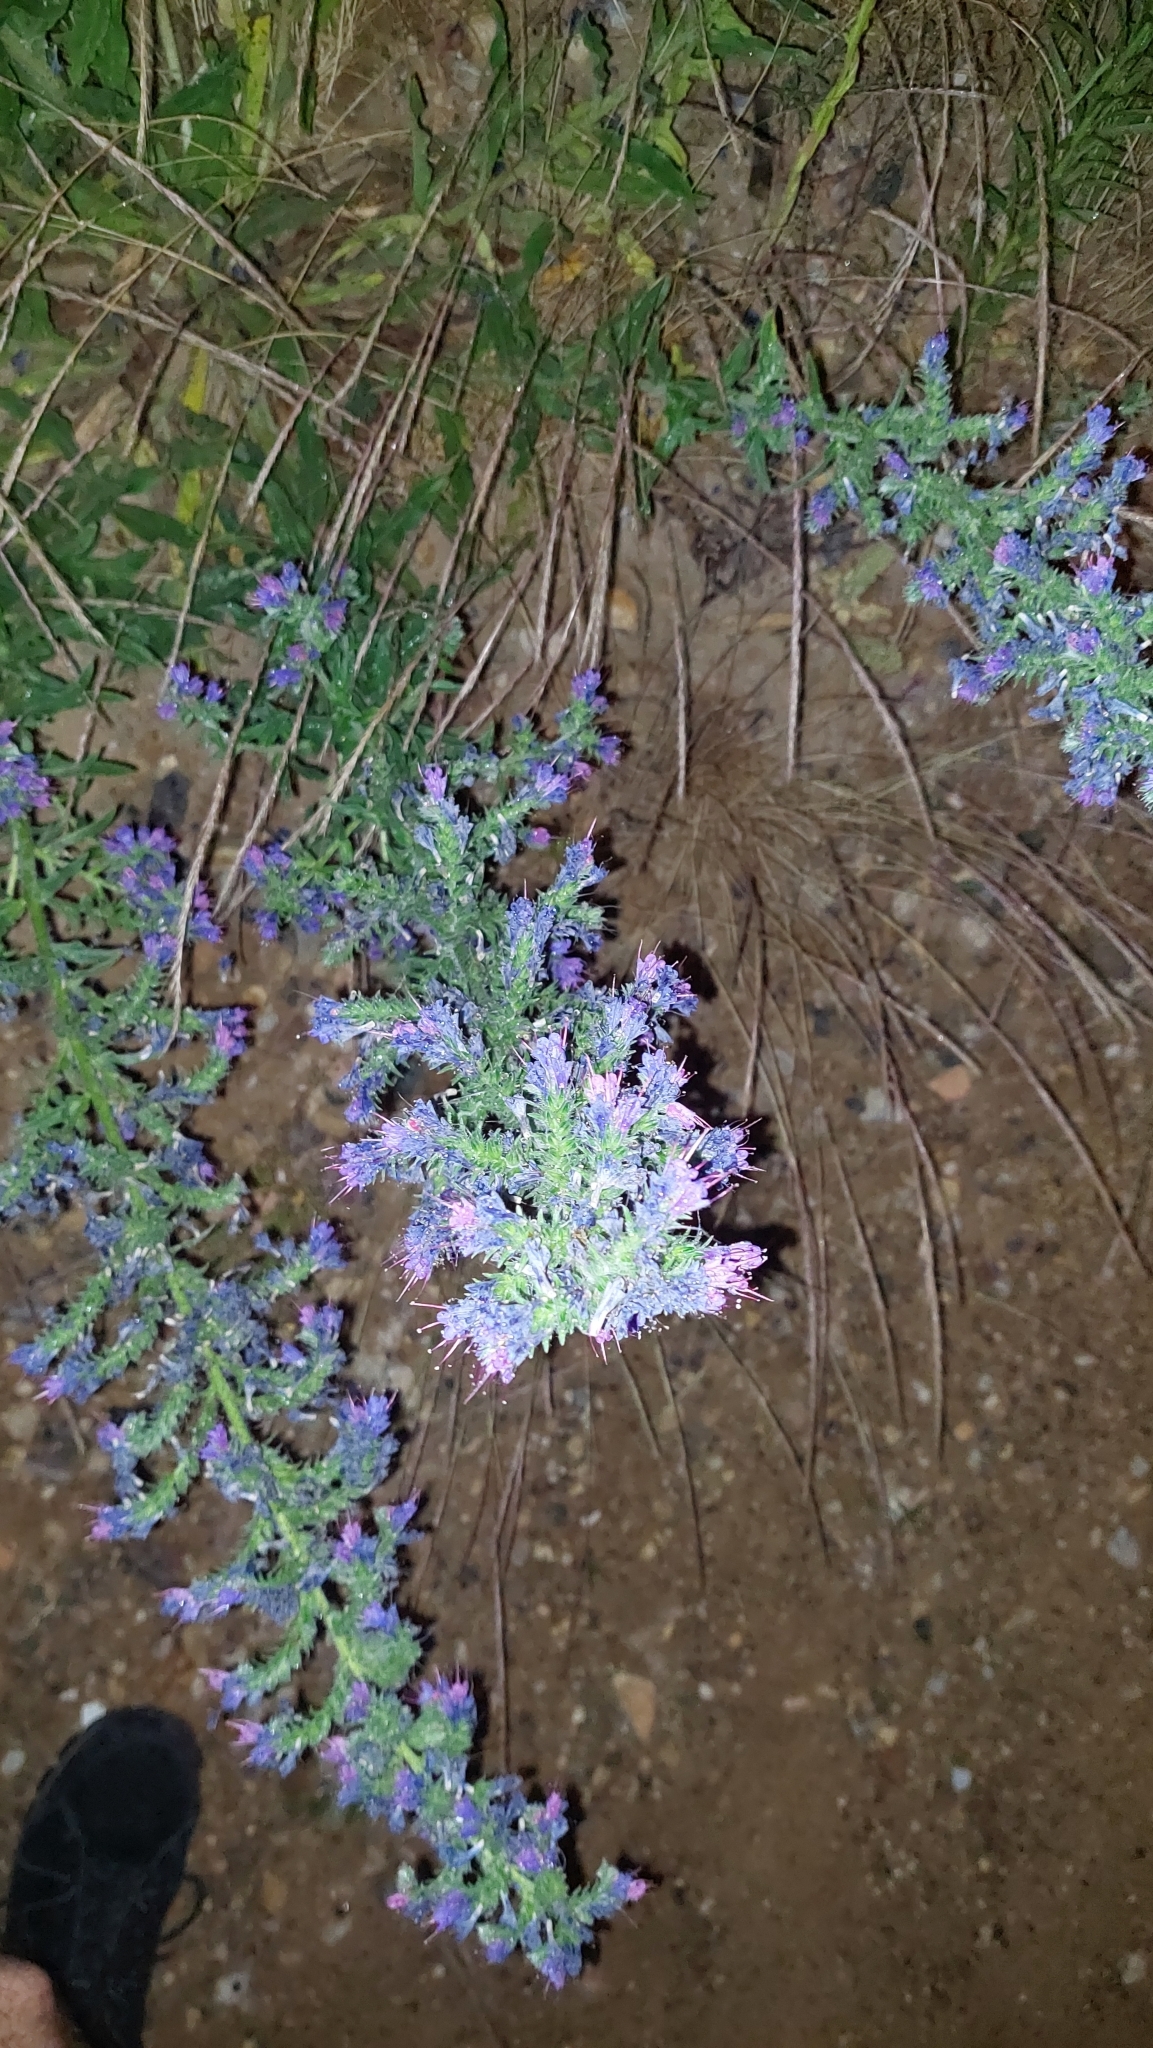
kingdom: Plantae
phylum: Tracheophyta
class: Magnoliopsida
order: Boraginales
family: Boraginaceae
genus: Echium
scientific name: Echium vulgare
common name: Common viper's bugloss
